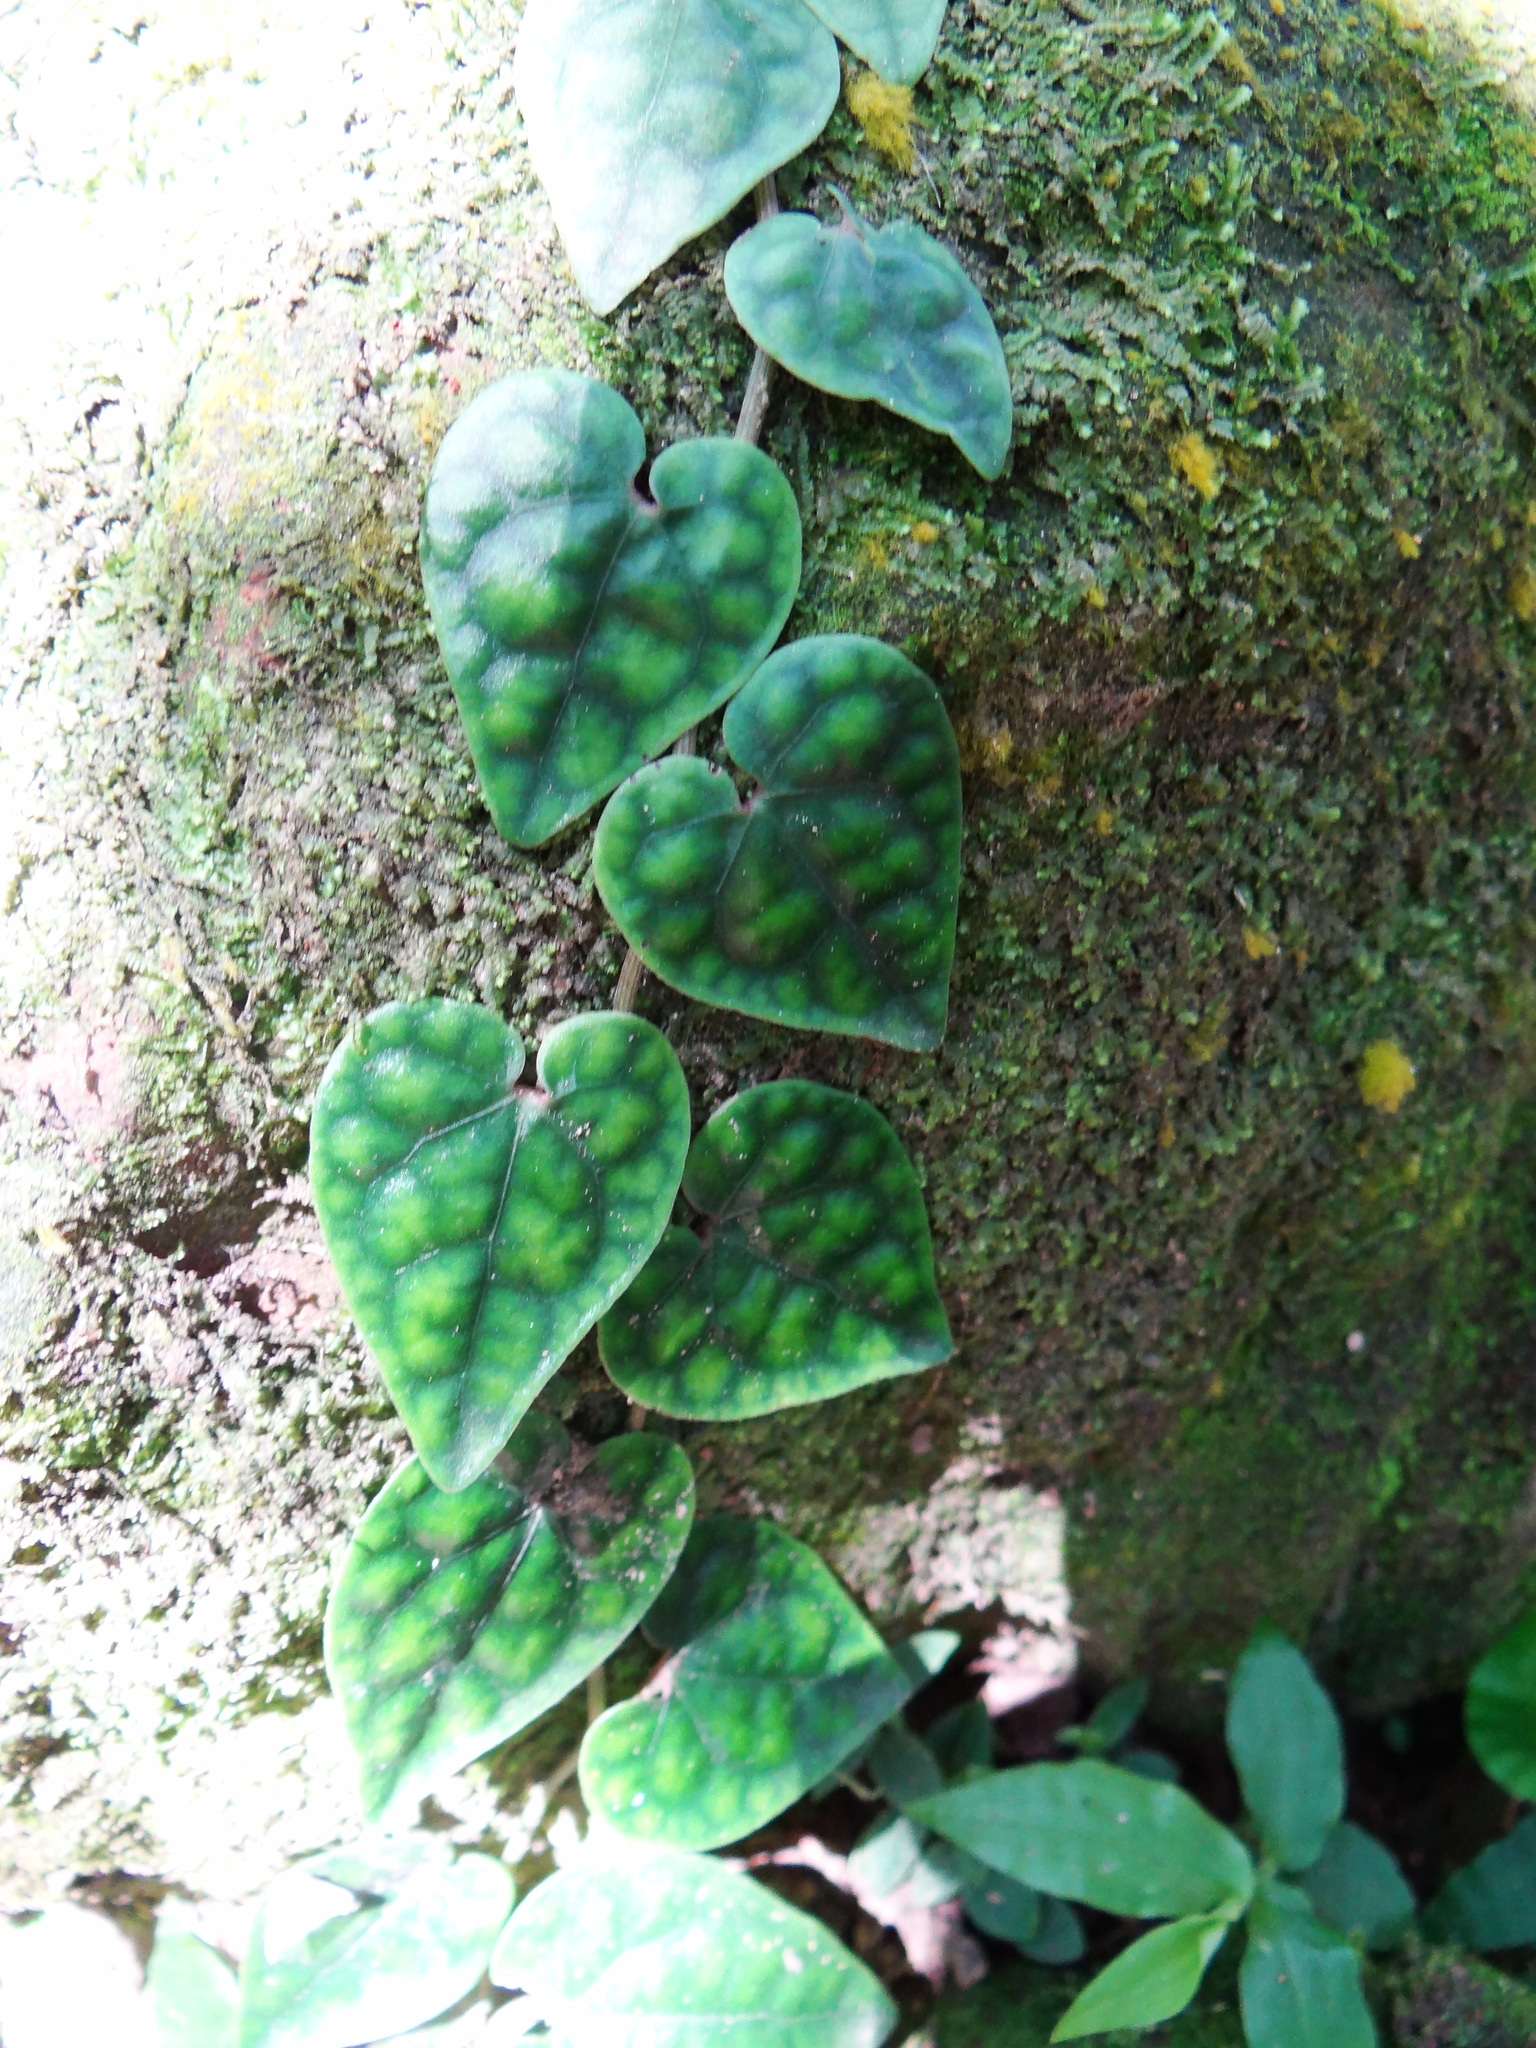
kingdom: Plantae
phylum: Tracheophyta
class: Magnoliopsida
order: Piperales
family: Piperaceae
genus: Piper
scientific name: Piper taiwanense
